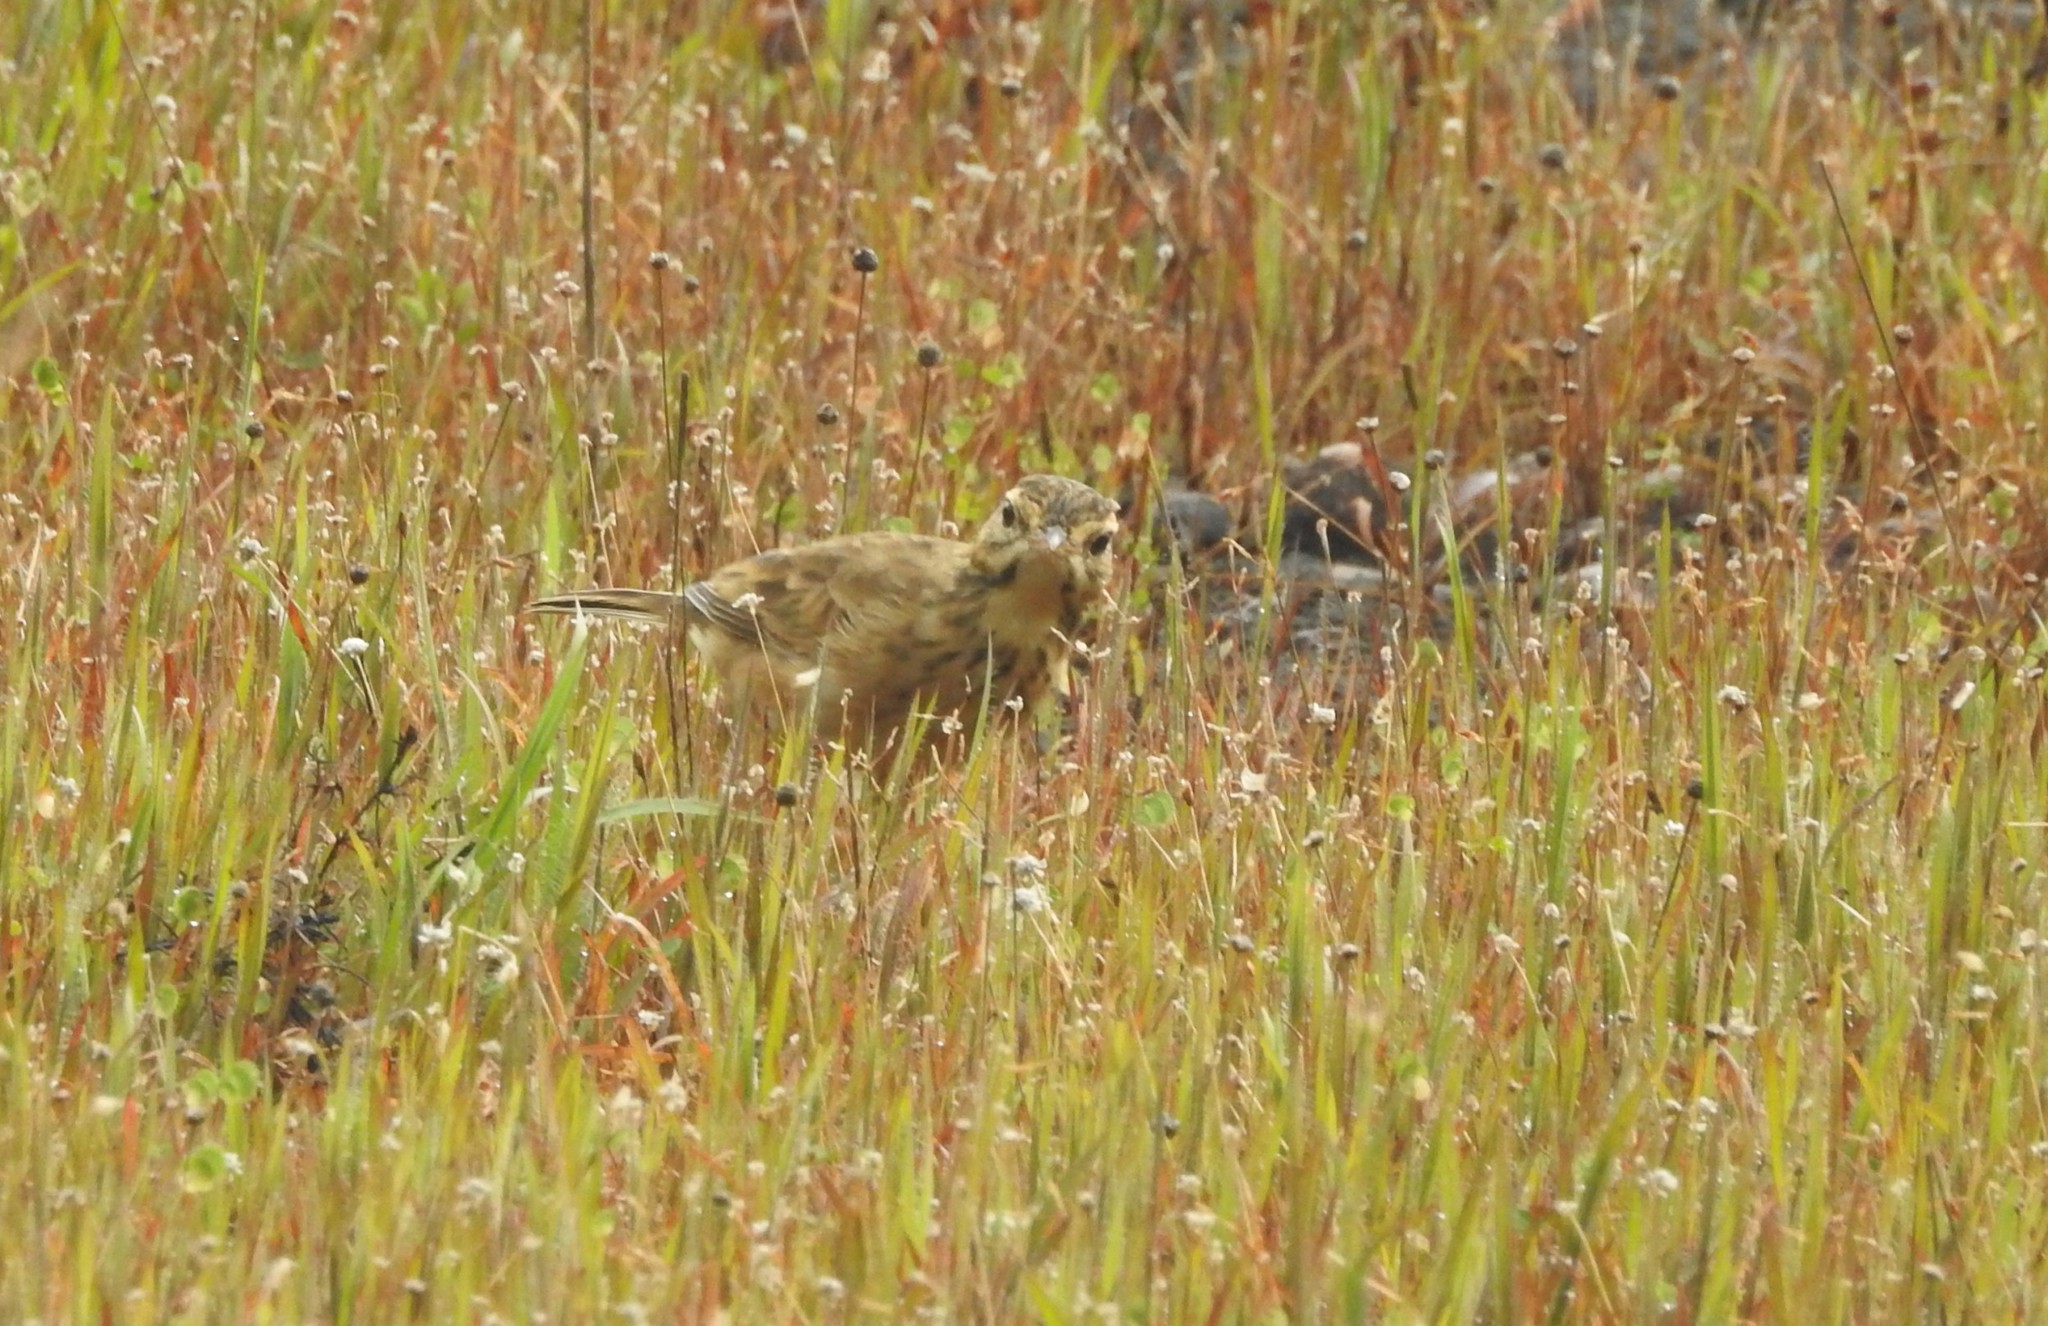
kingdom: Animalia
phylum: Chordata
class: Aves
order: Passeriformes
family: Motacillidae
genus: Anthus
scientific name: Anthus rufulus
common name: Paddyfield pipit
